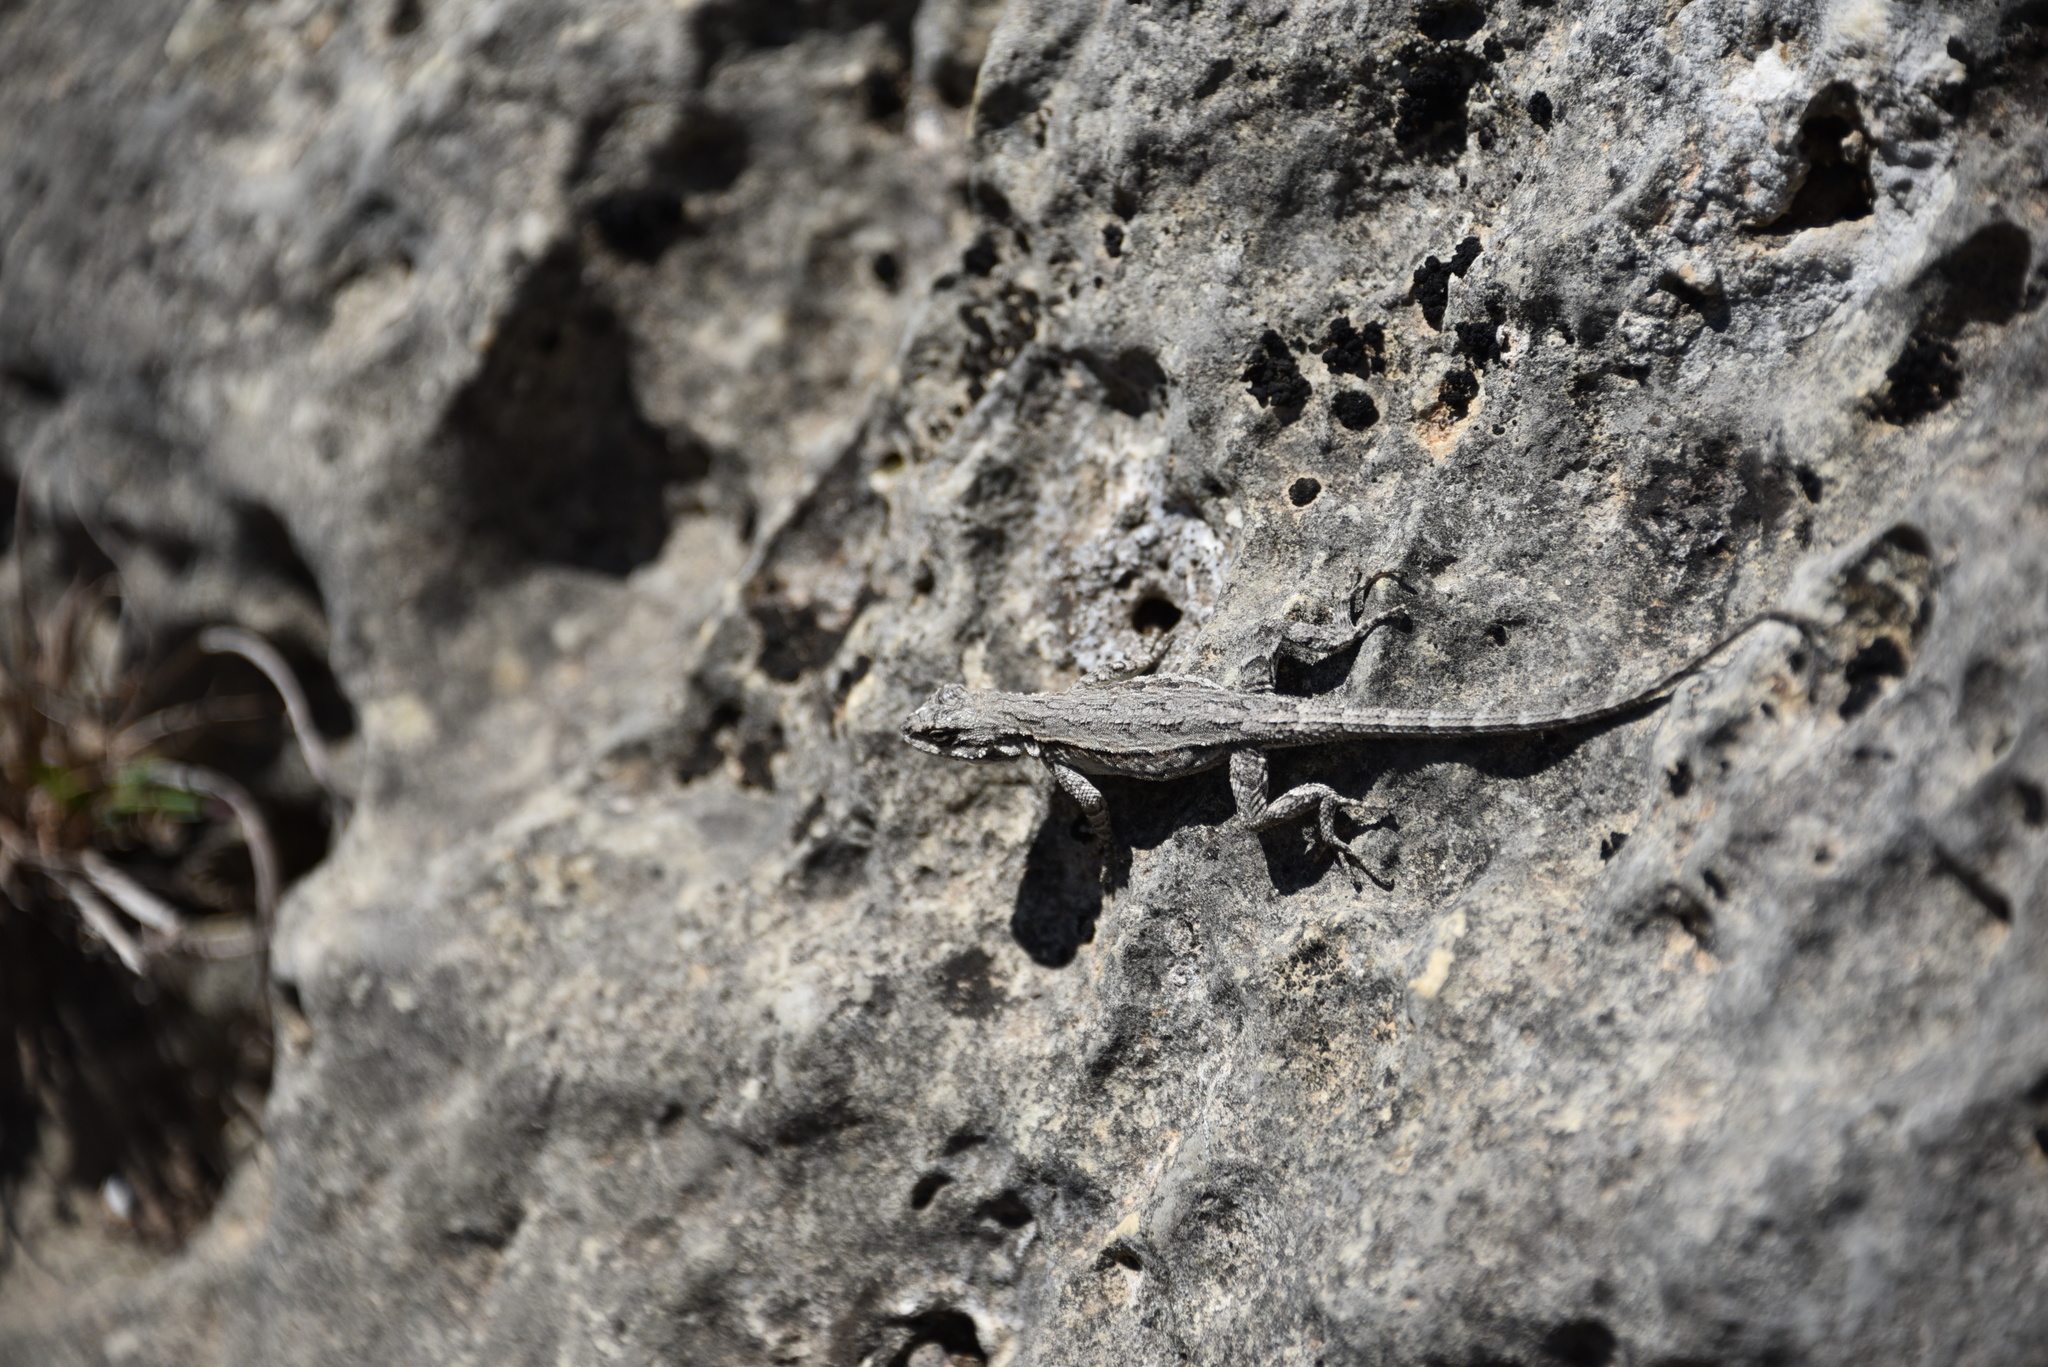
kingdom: Animalia
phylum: Chordata
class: Squamata
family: Phrynosomatidae
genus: Urosaurus
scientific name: Urosaurus ornatus
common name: Ornate tree lizard
